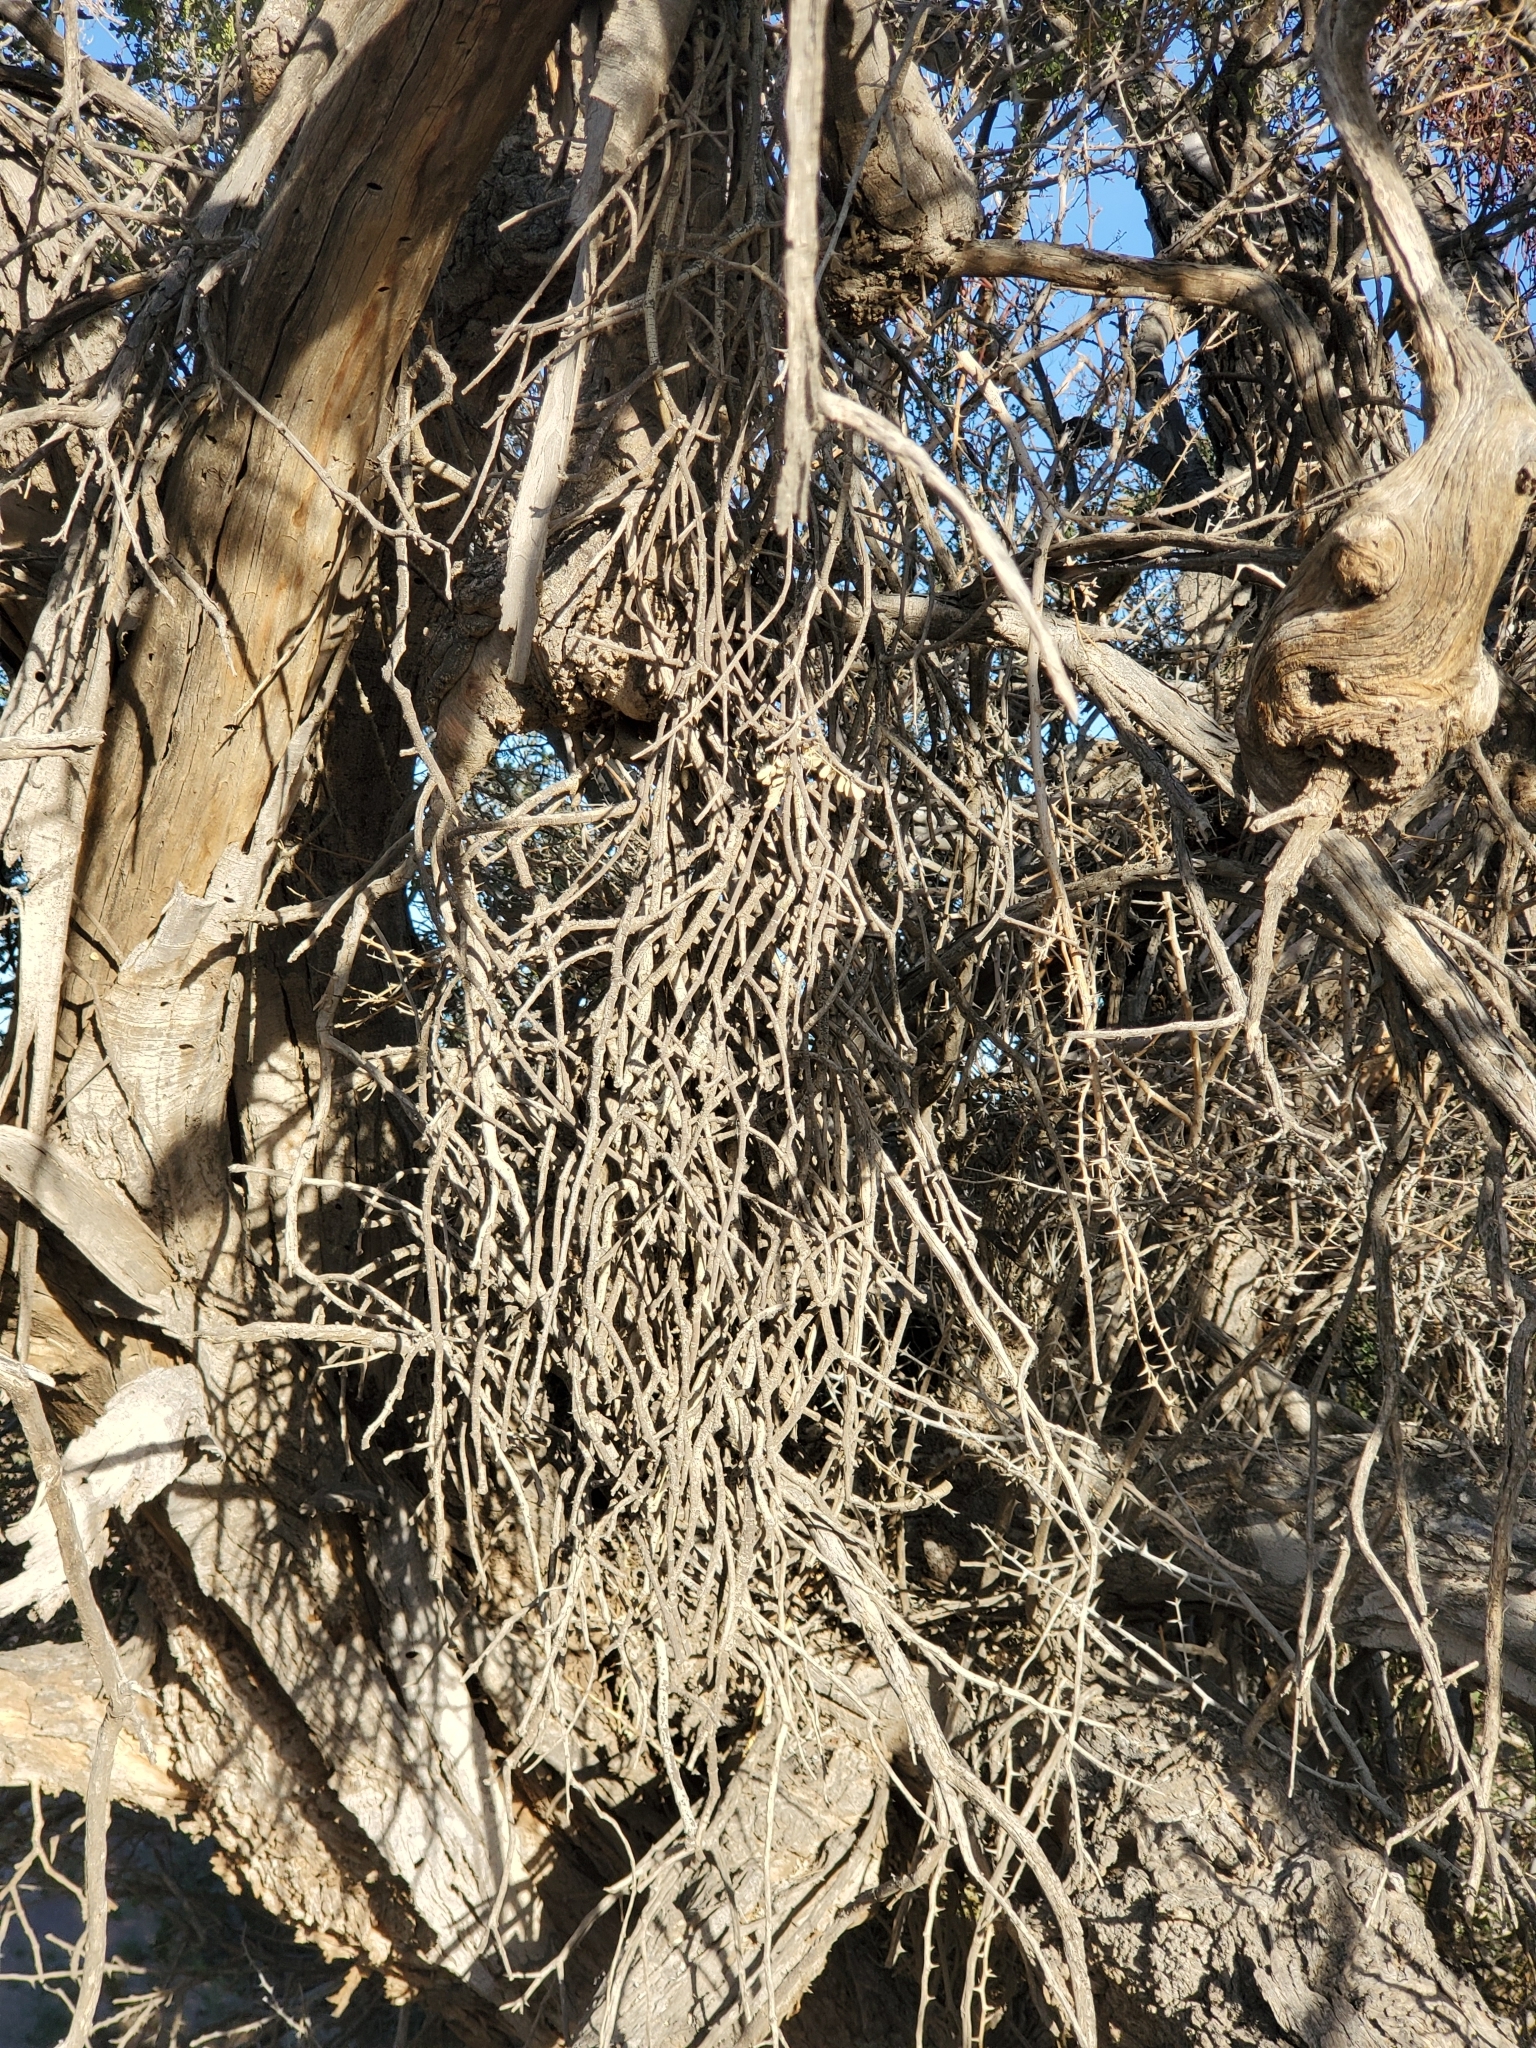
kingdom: Plantae
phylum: Tracheophyta
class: Magnoliopsida
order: Santalales
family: Viscaceae
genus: Phoradendron
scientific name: Phoradendron californicum
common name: Acacia mistletoe
